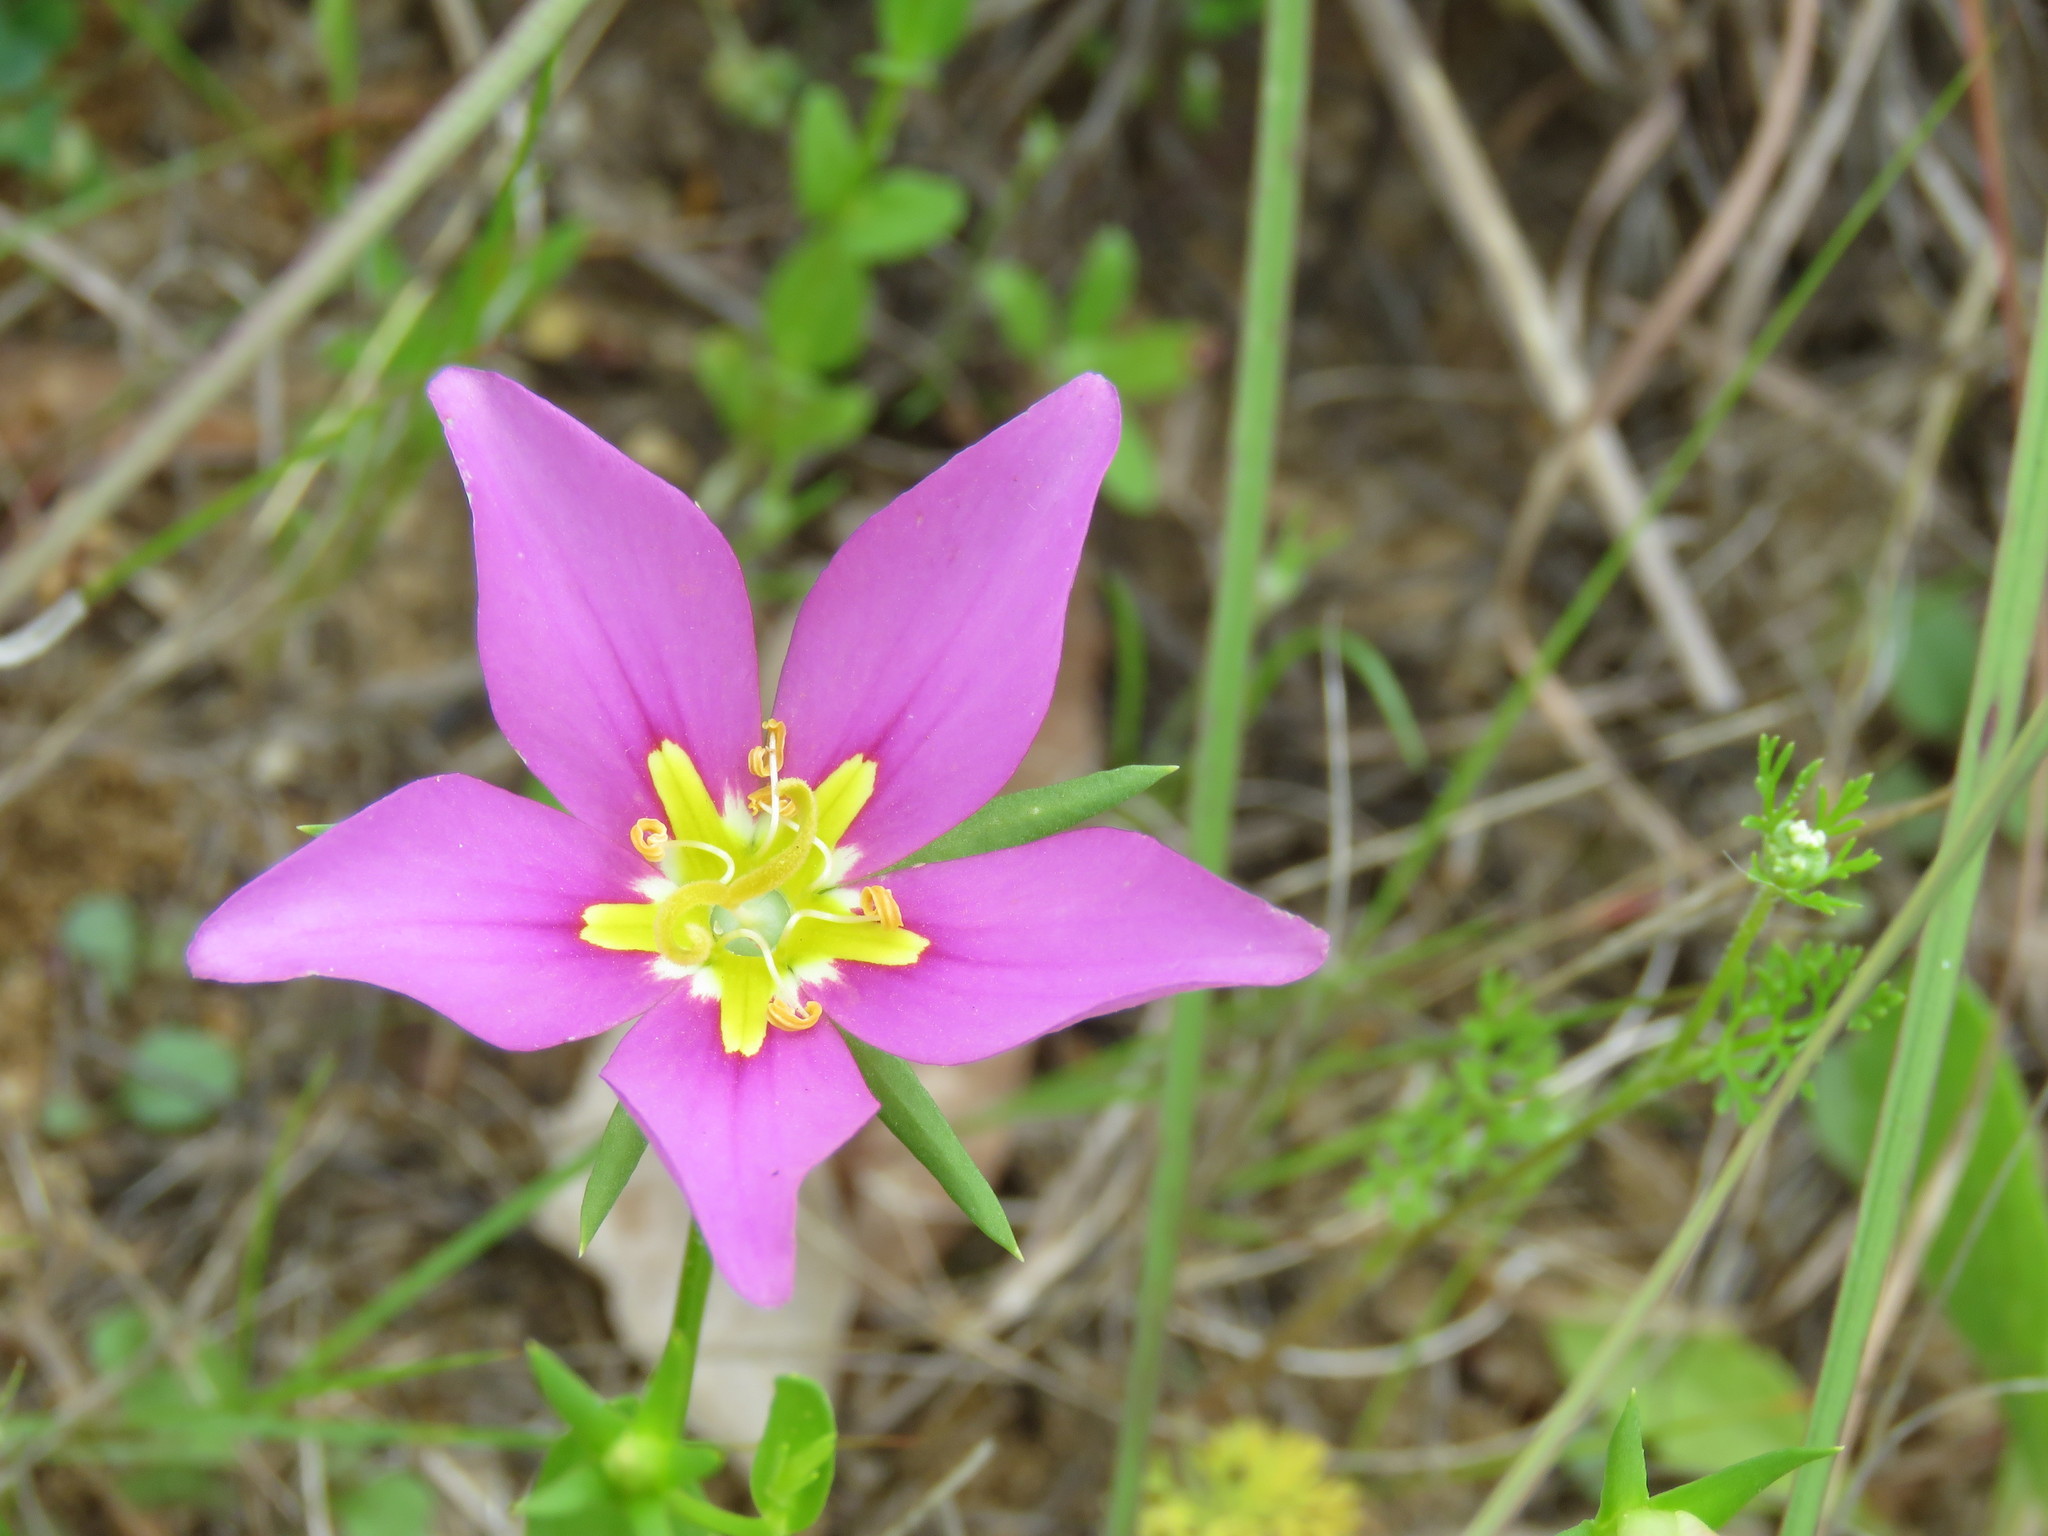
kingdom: Plantae
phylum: Tracheophyta
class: Magnoliopsida
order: Gentianales
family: Gentianaceae
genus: Sabatia
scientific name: Sabatia campestris
